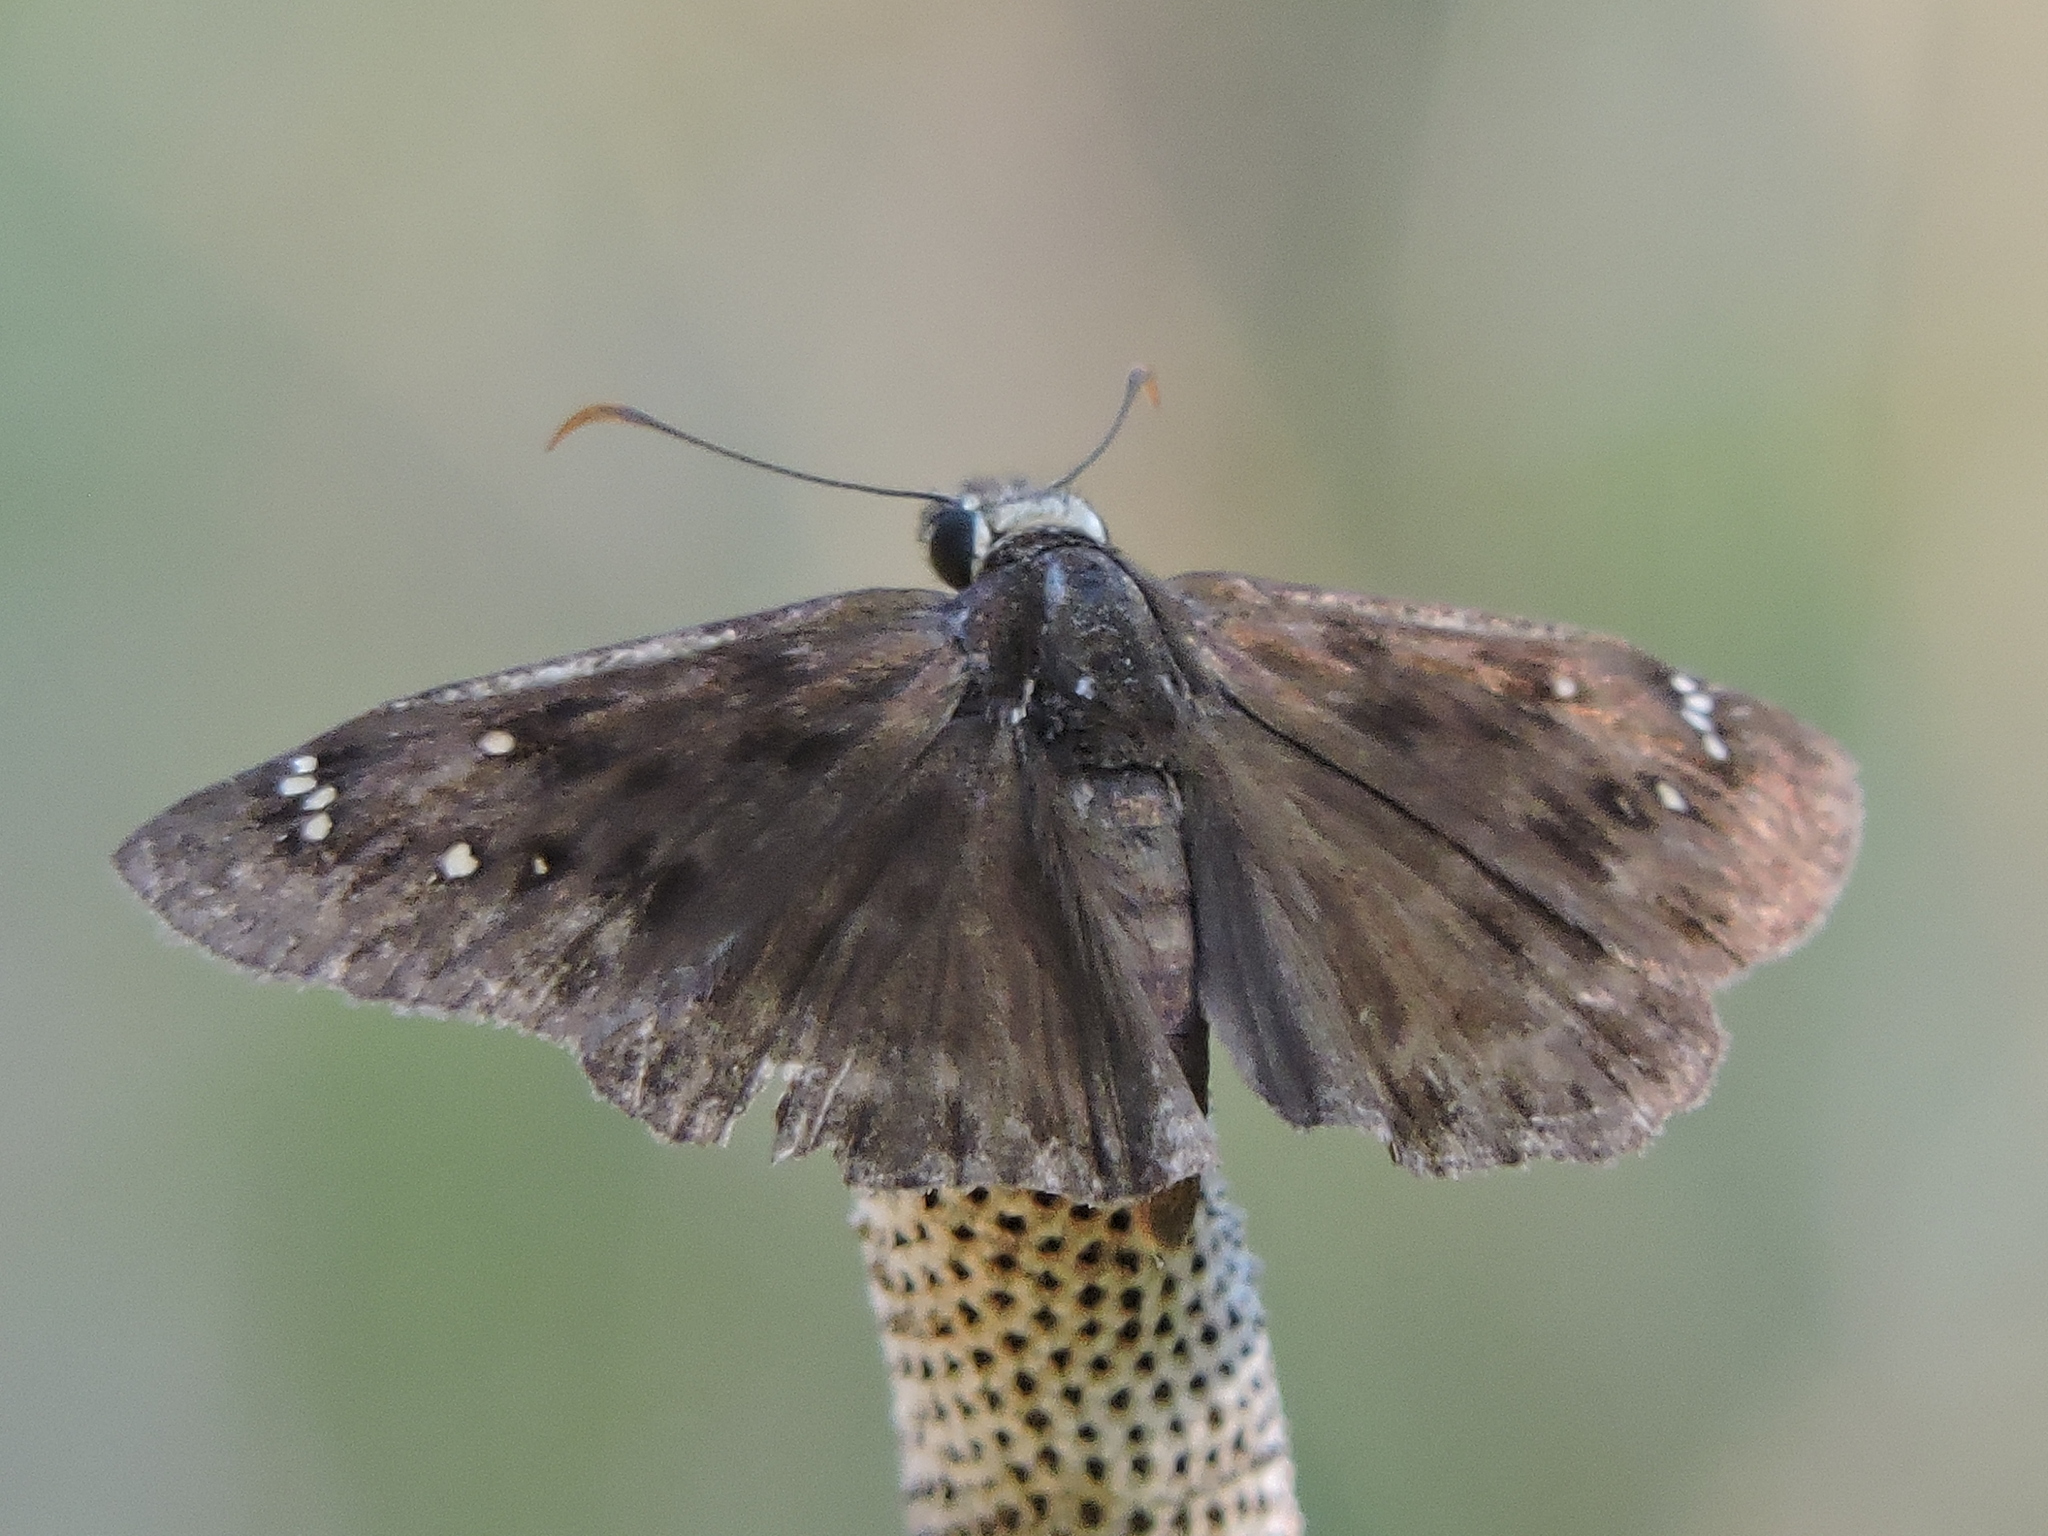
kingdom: Animalia
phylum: Arthropoda
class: Insecta
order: Lepidoptera
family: Hesperiidae
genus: Erynnis
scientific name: Erynnis horatius
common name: Horace's duskywing
